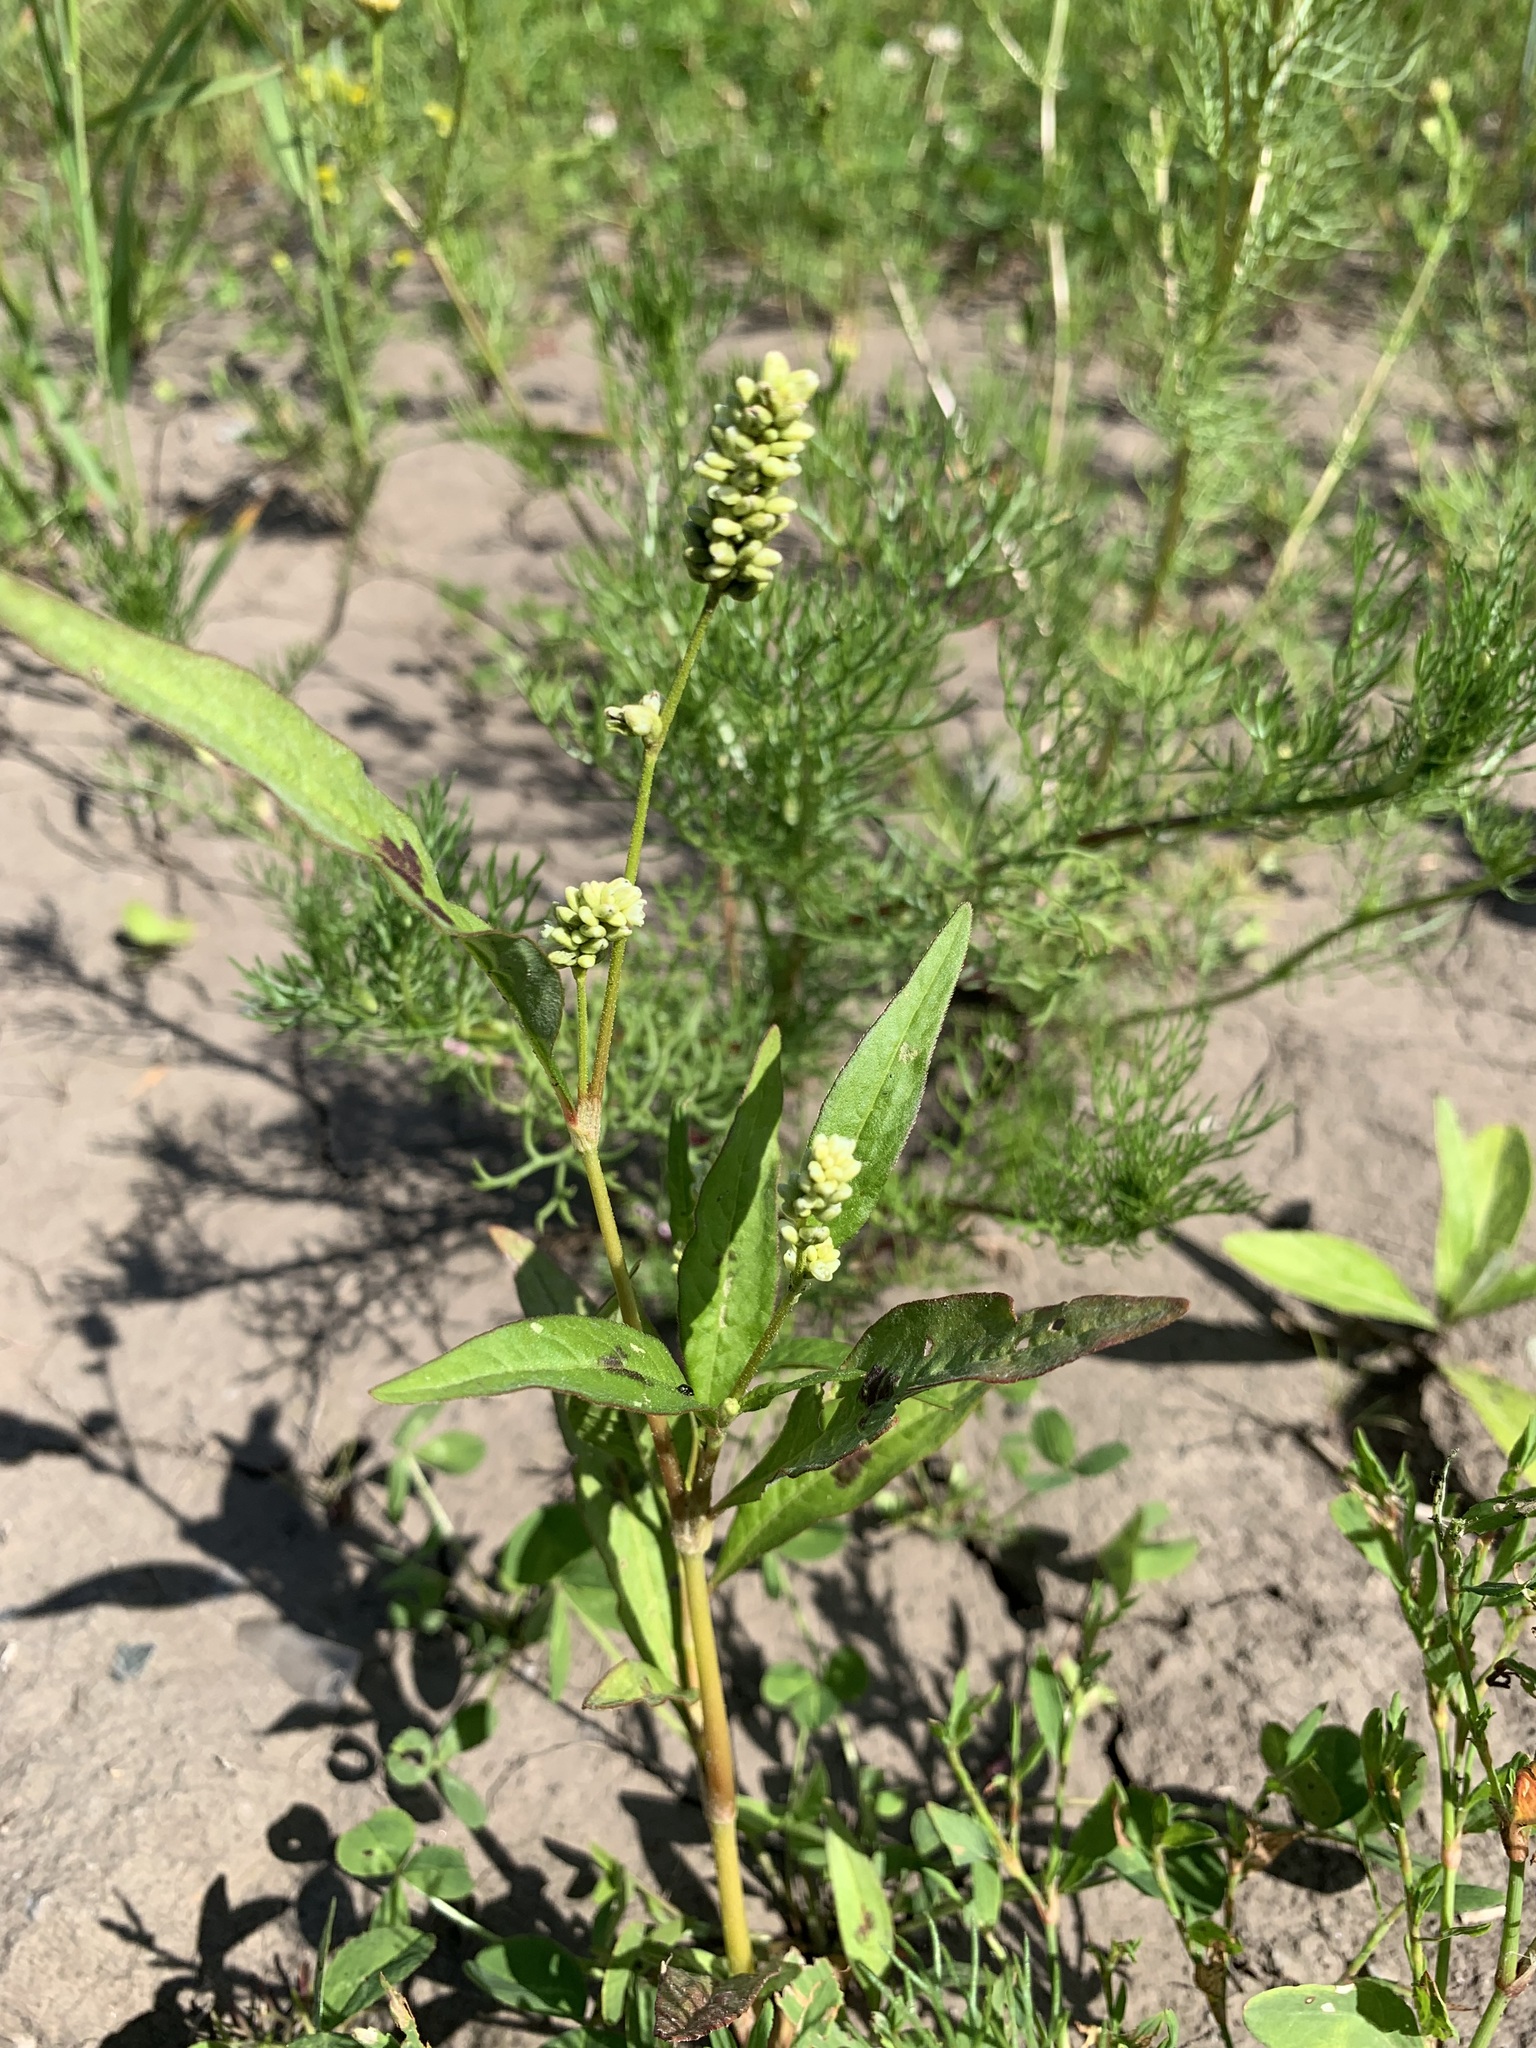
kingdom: Plantae
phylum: Tracheophyta
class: Magnoliopsida
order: Caryophyllales
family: Polygonaceae
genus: Persicaria
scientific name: Persicaria lapathifolia
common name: Curlytop knotweed
